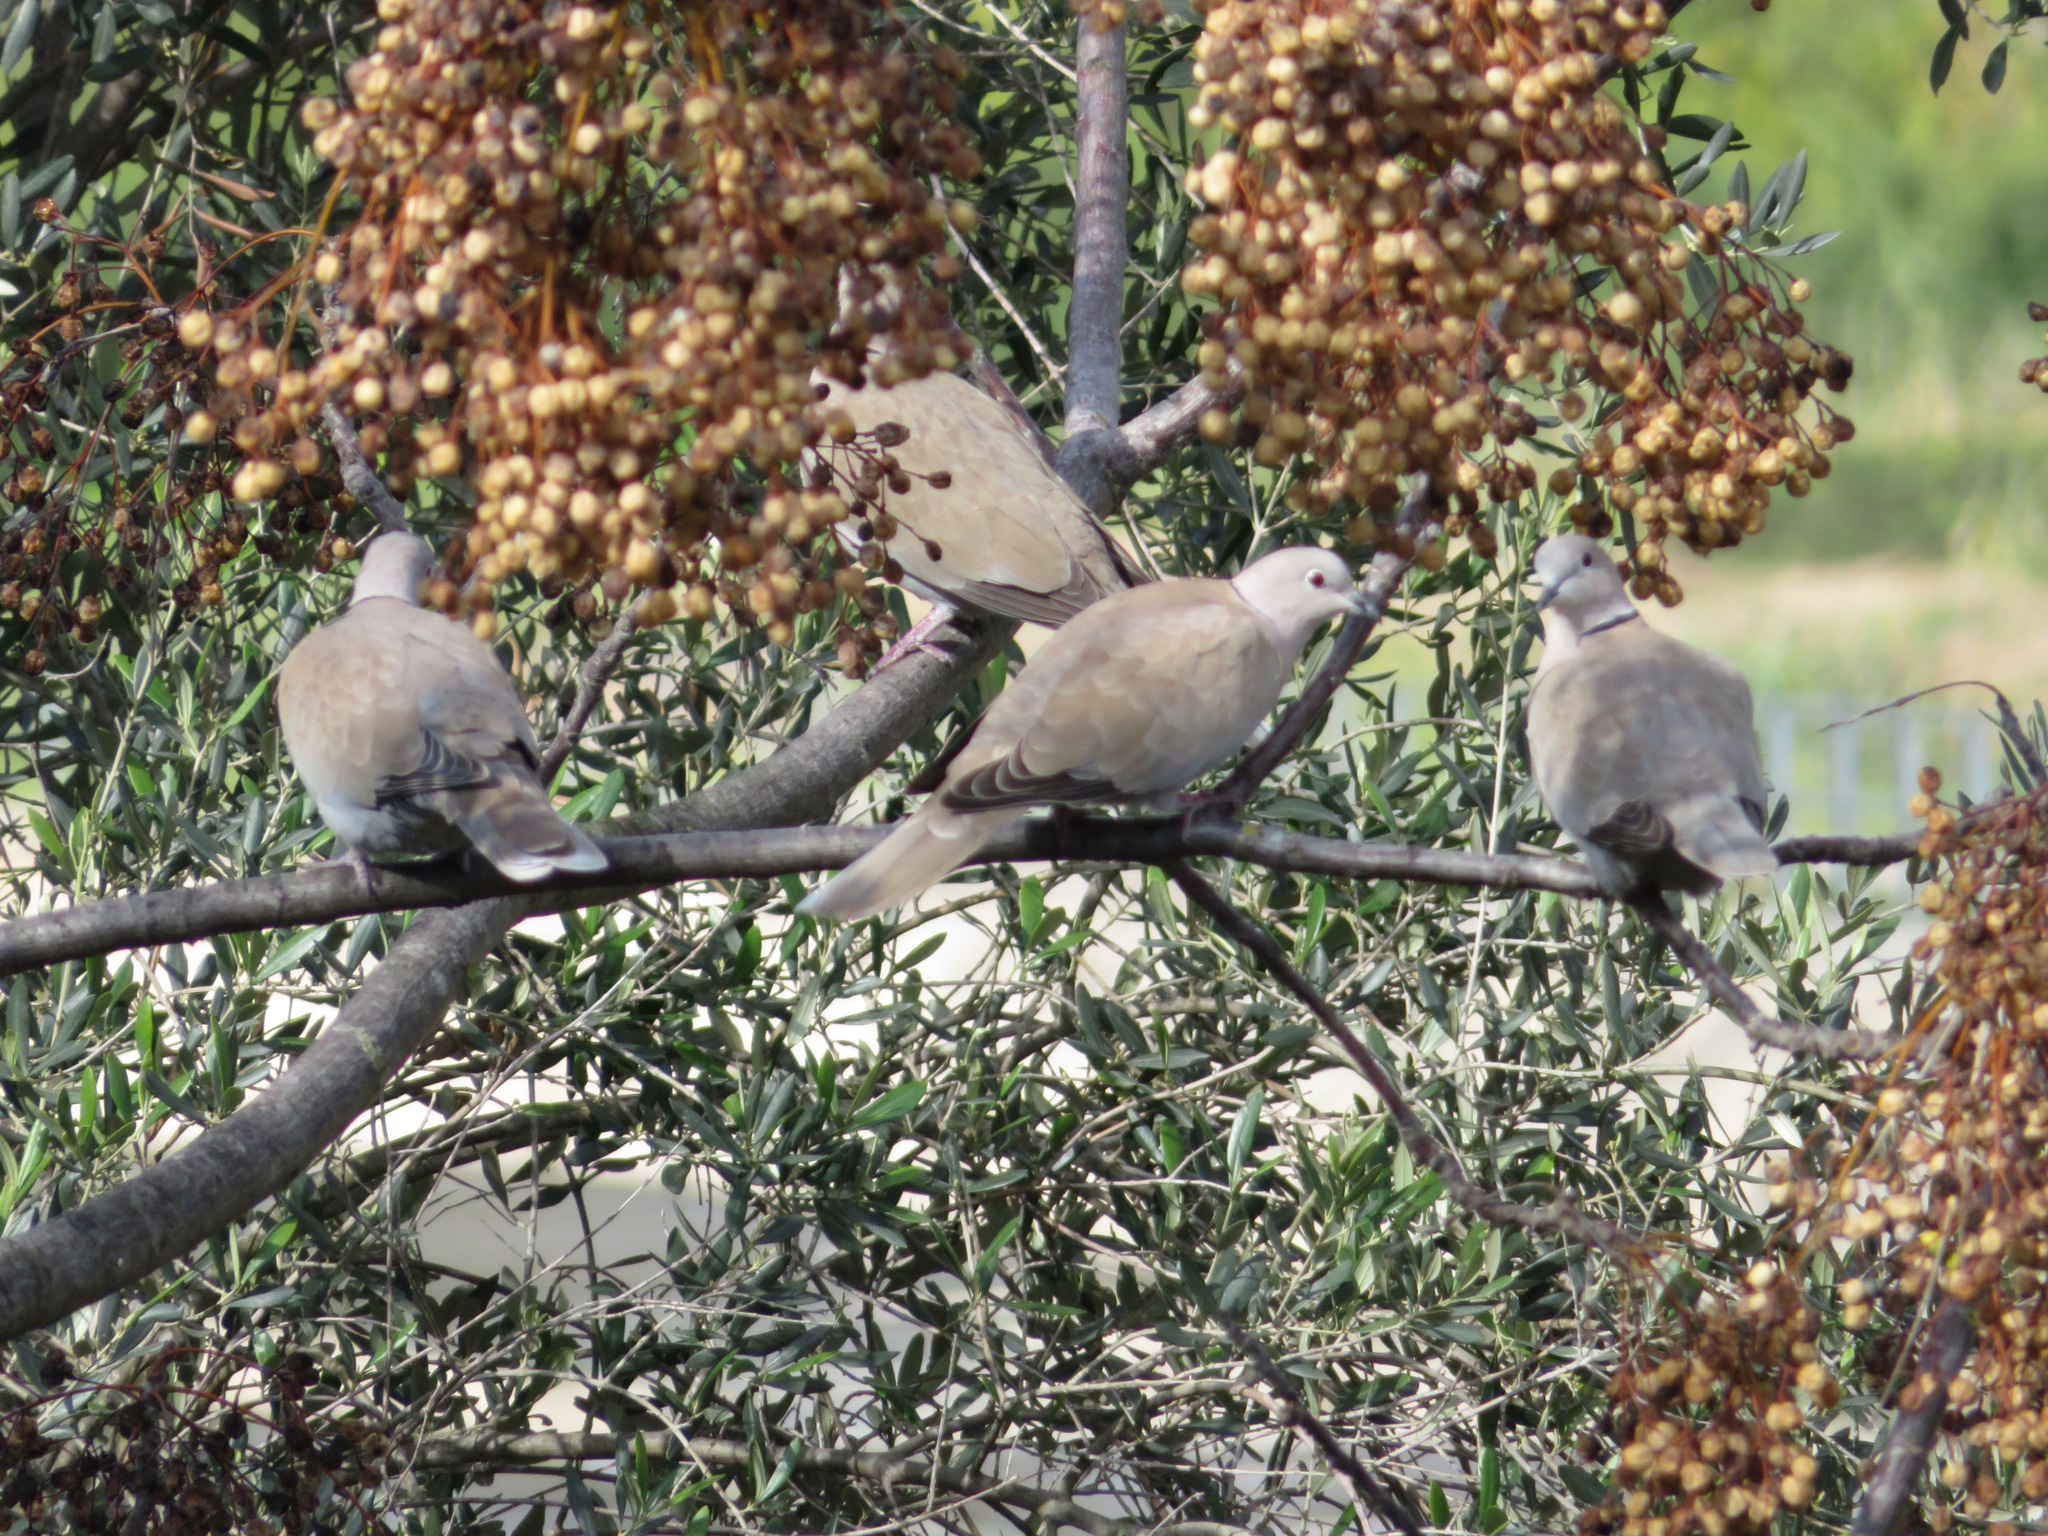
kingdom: Animalia
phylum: Chordata
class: Aves
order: Columbiformes
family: Columbidae
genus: Streptopelia
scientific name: Streptopelia decaocto
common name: Eurasian collared dove
